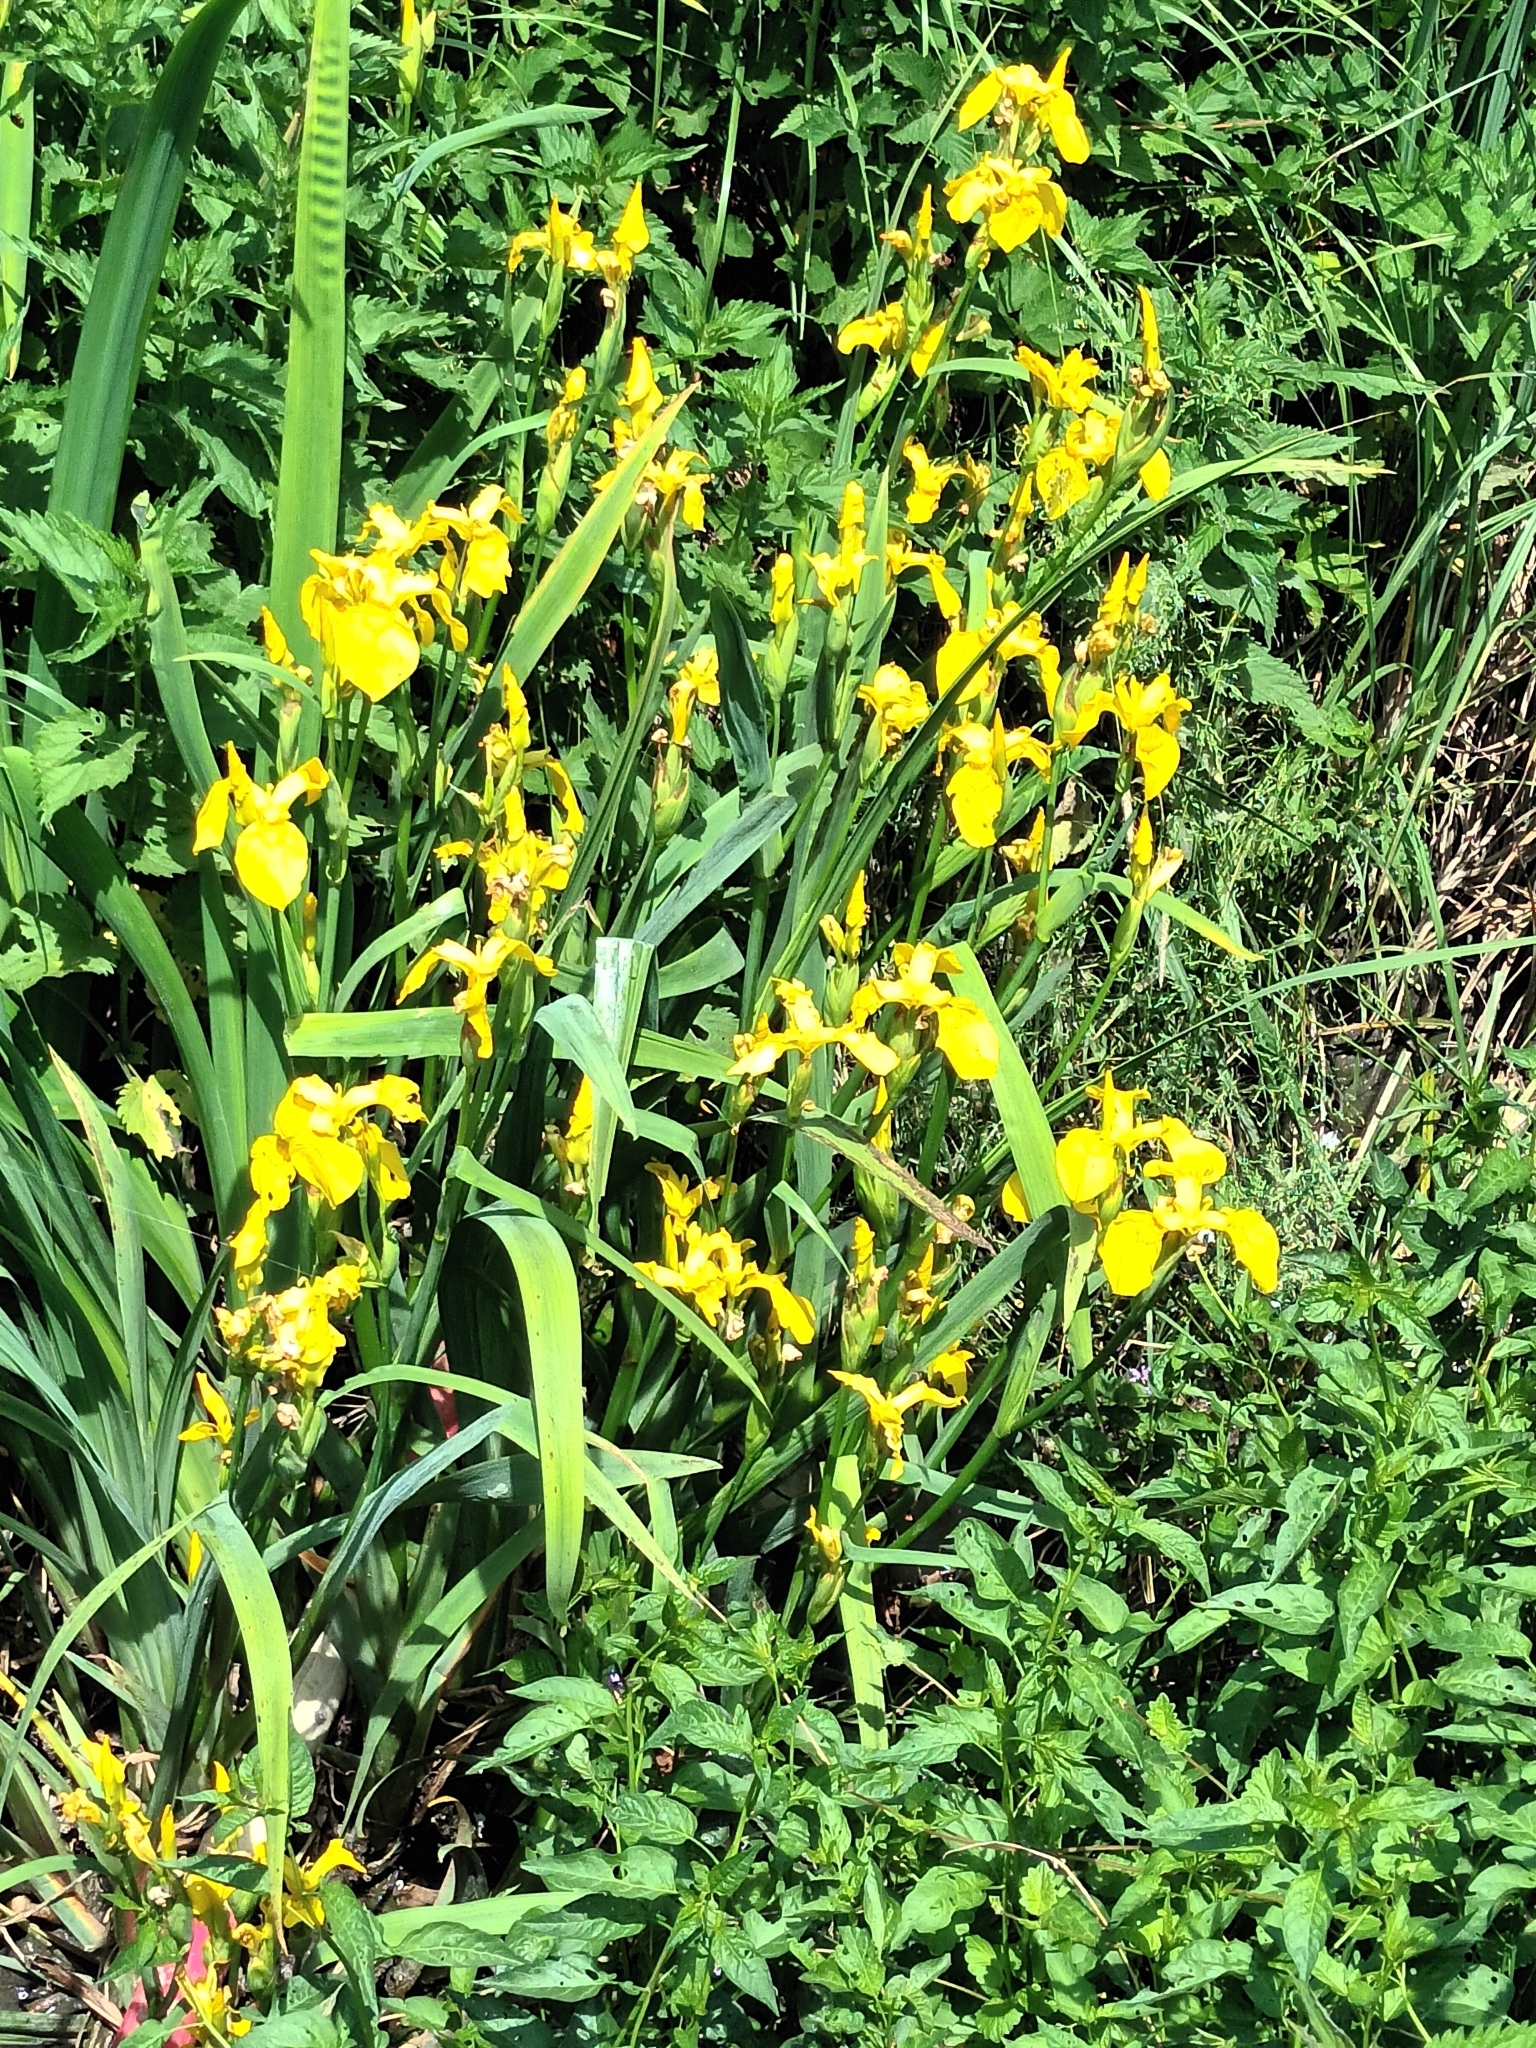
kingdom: Plantae
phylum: Tracheophyta
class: Liliopsida
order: Asparagales
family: Iridaceae
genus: Iris
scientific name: Iris pseudacorus
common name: Yellow flag
